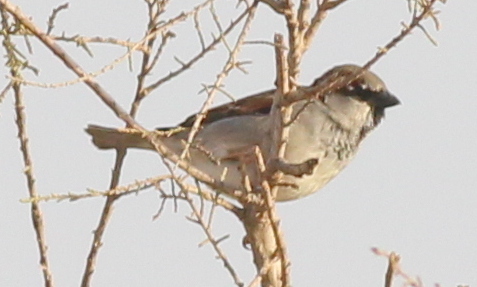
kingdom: Animalia
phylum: Chordata
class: Aves
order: Passeriformes
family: Passeridae
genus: Passer
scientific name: Passer domesticus
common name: House sparrow
